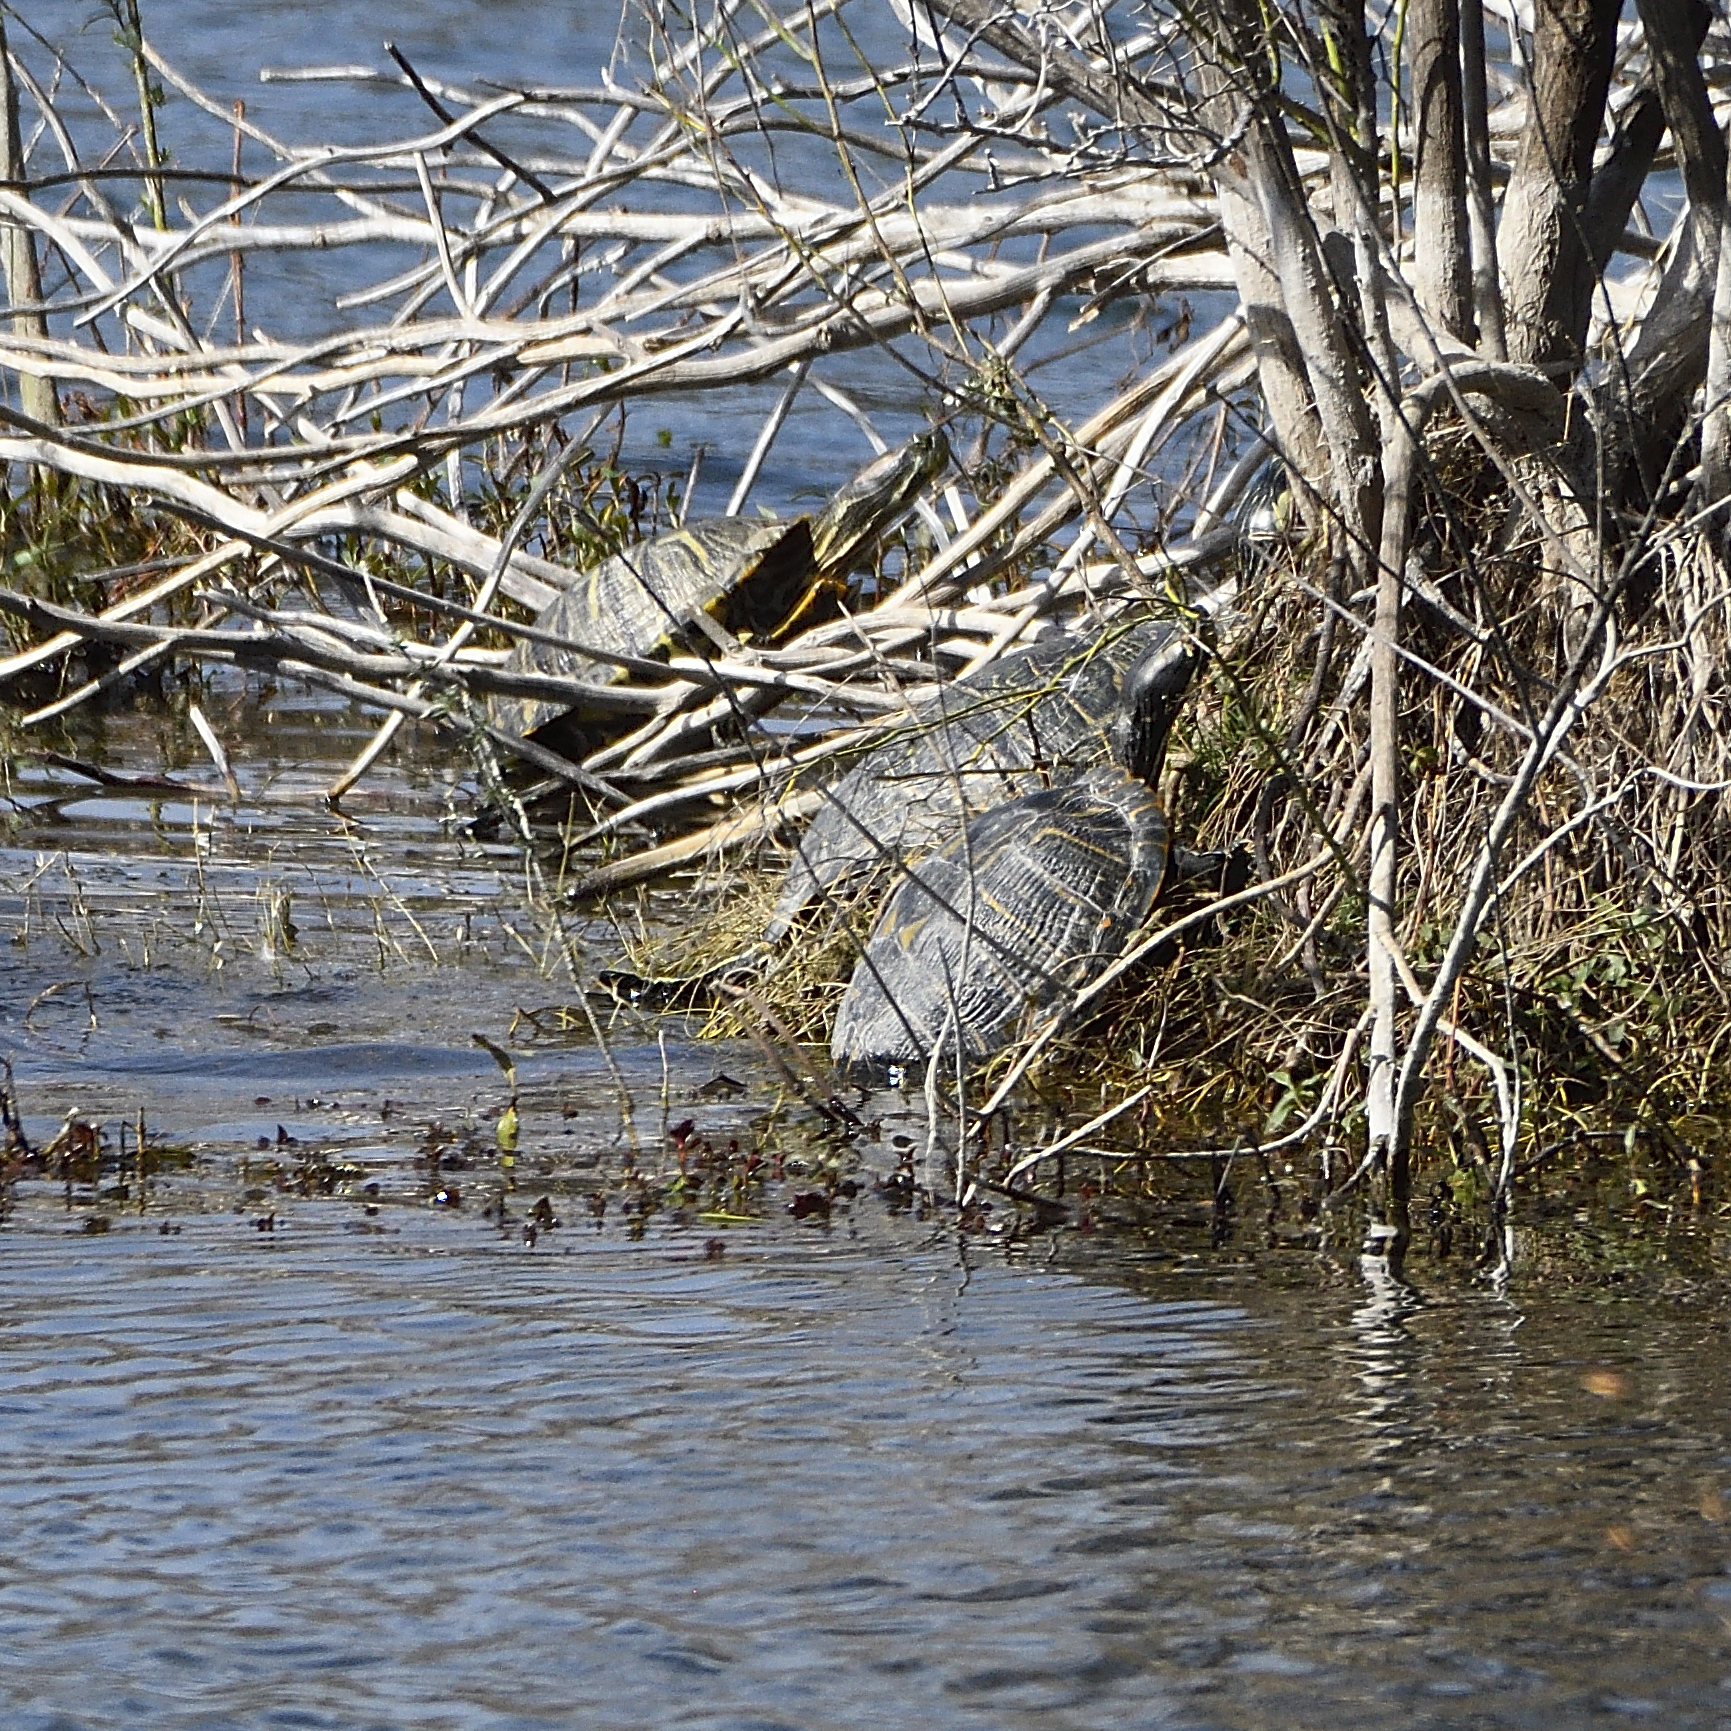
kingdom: Animalia
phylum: Chordata
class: Testudines
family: Emydidae
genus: Trachemys
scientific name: Trachemys scripta
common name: Slider
